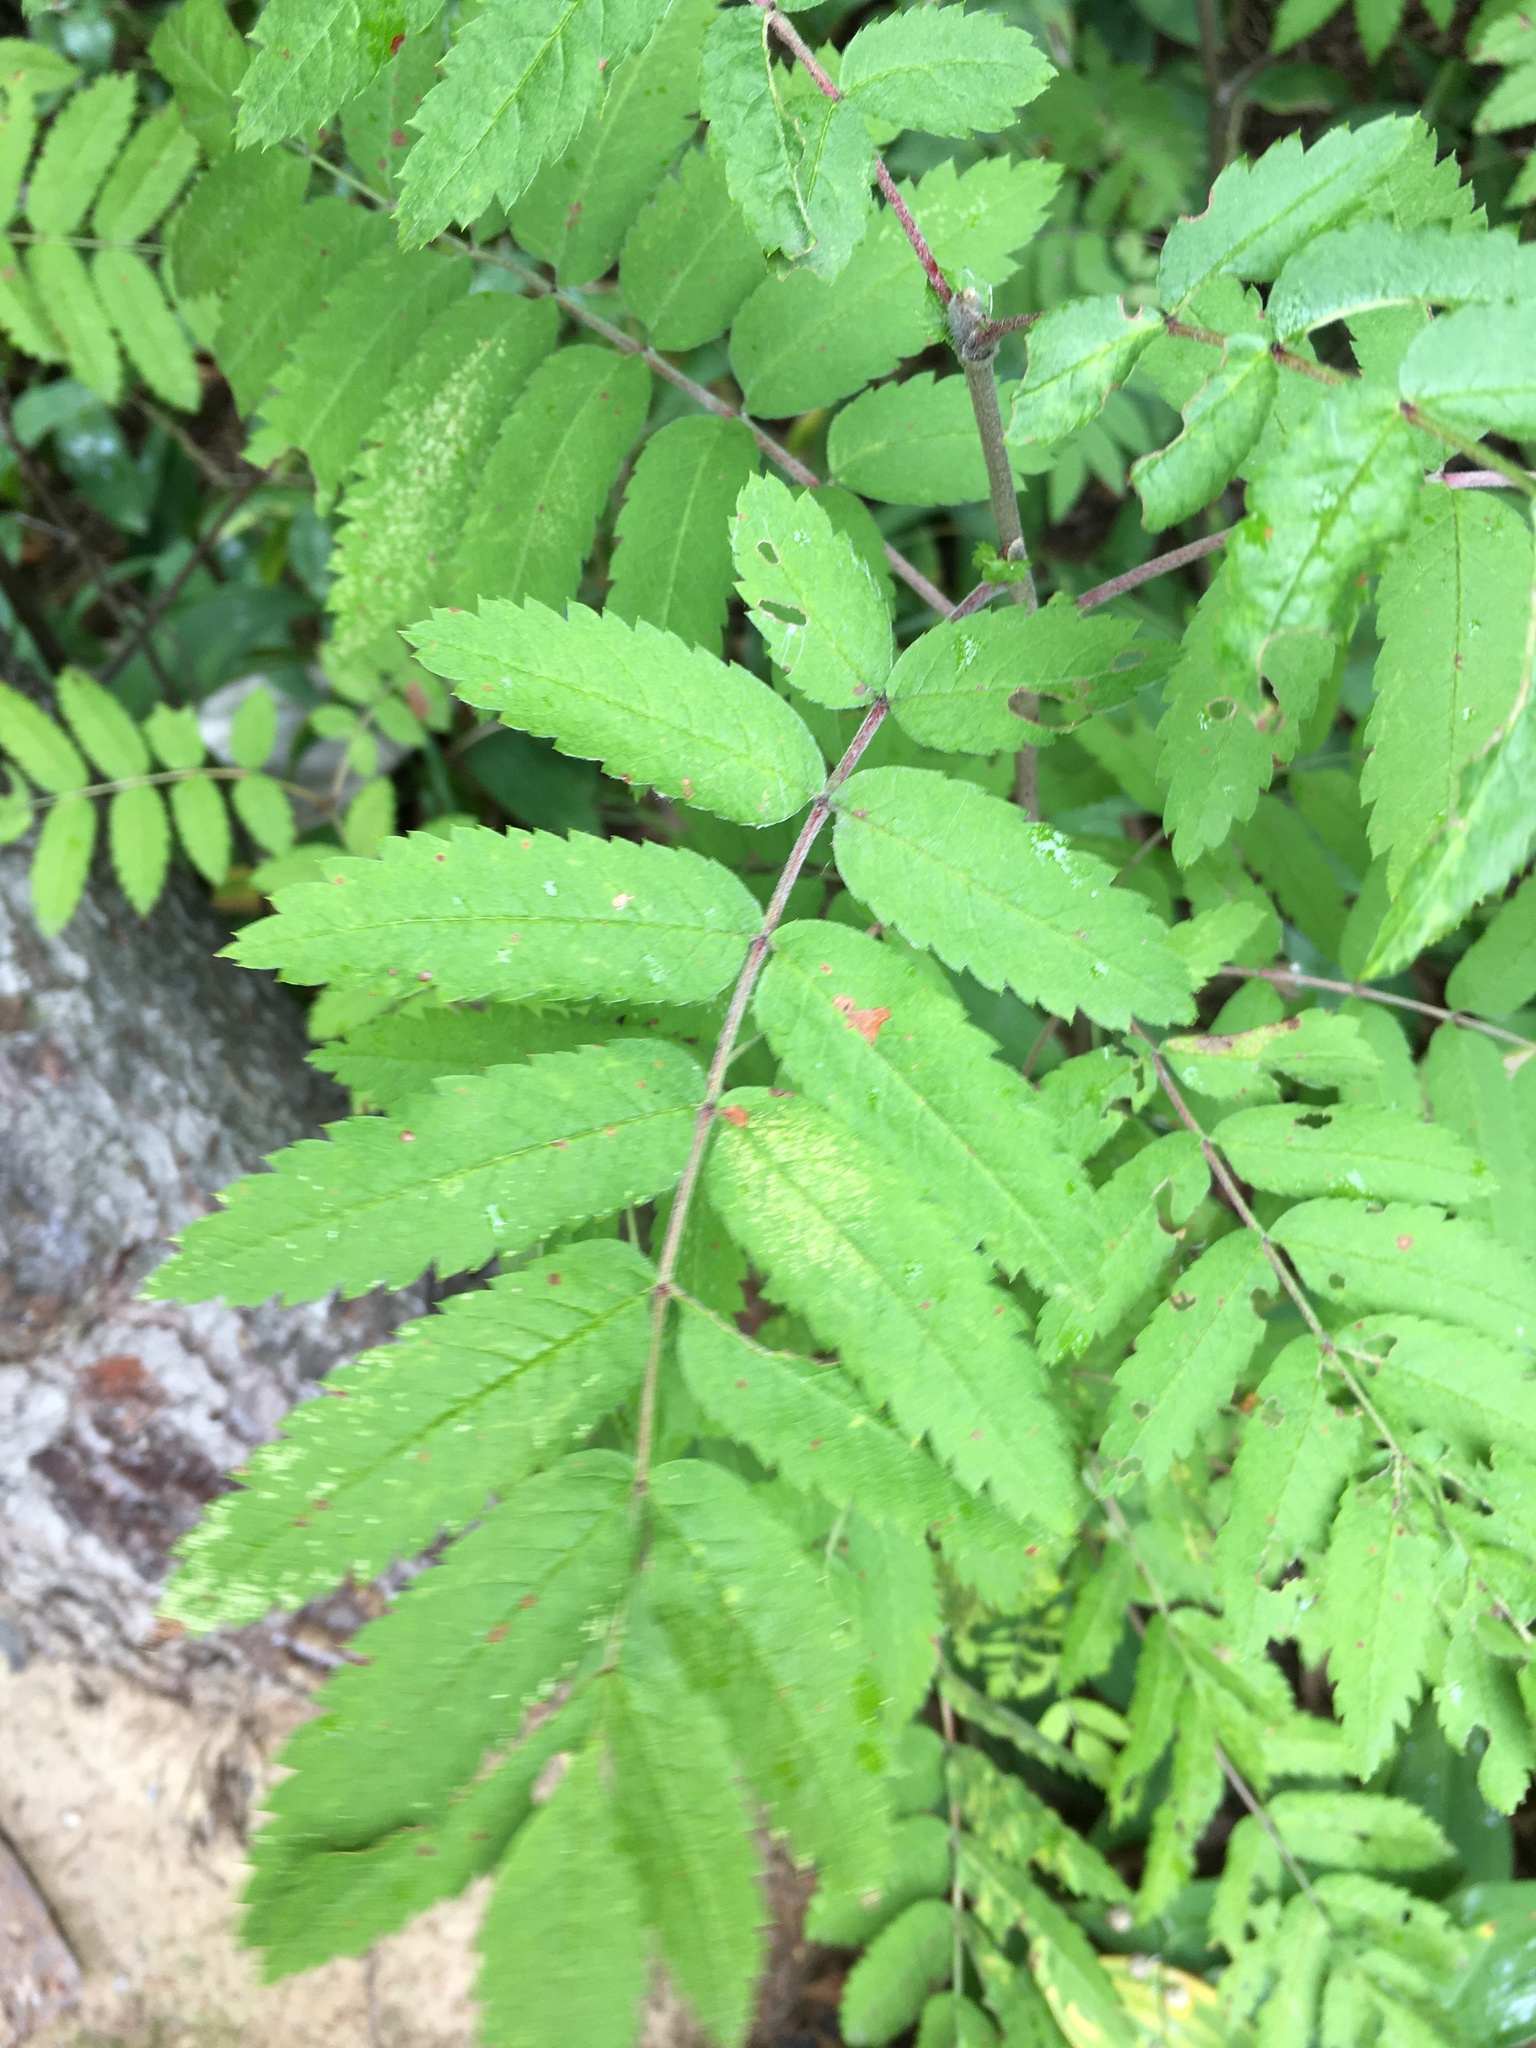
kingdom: Plantae
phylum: Tracheophyta
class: Magnoliopsida
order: Rosales
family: Rosaceae
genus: Sorbus
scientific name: Sorbus aucuparia
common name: Rowan
